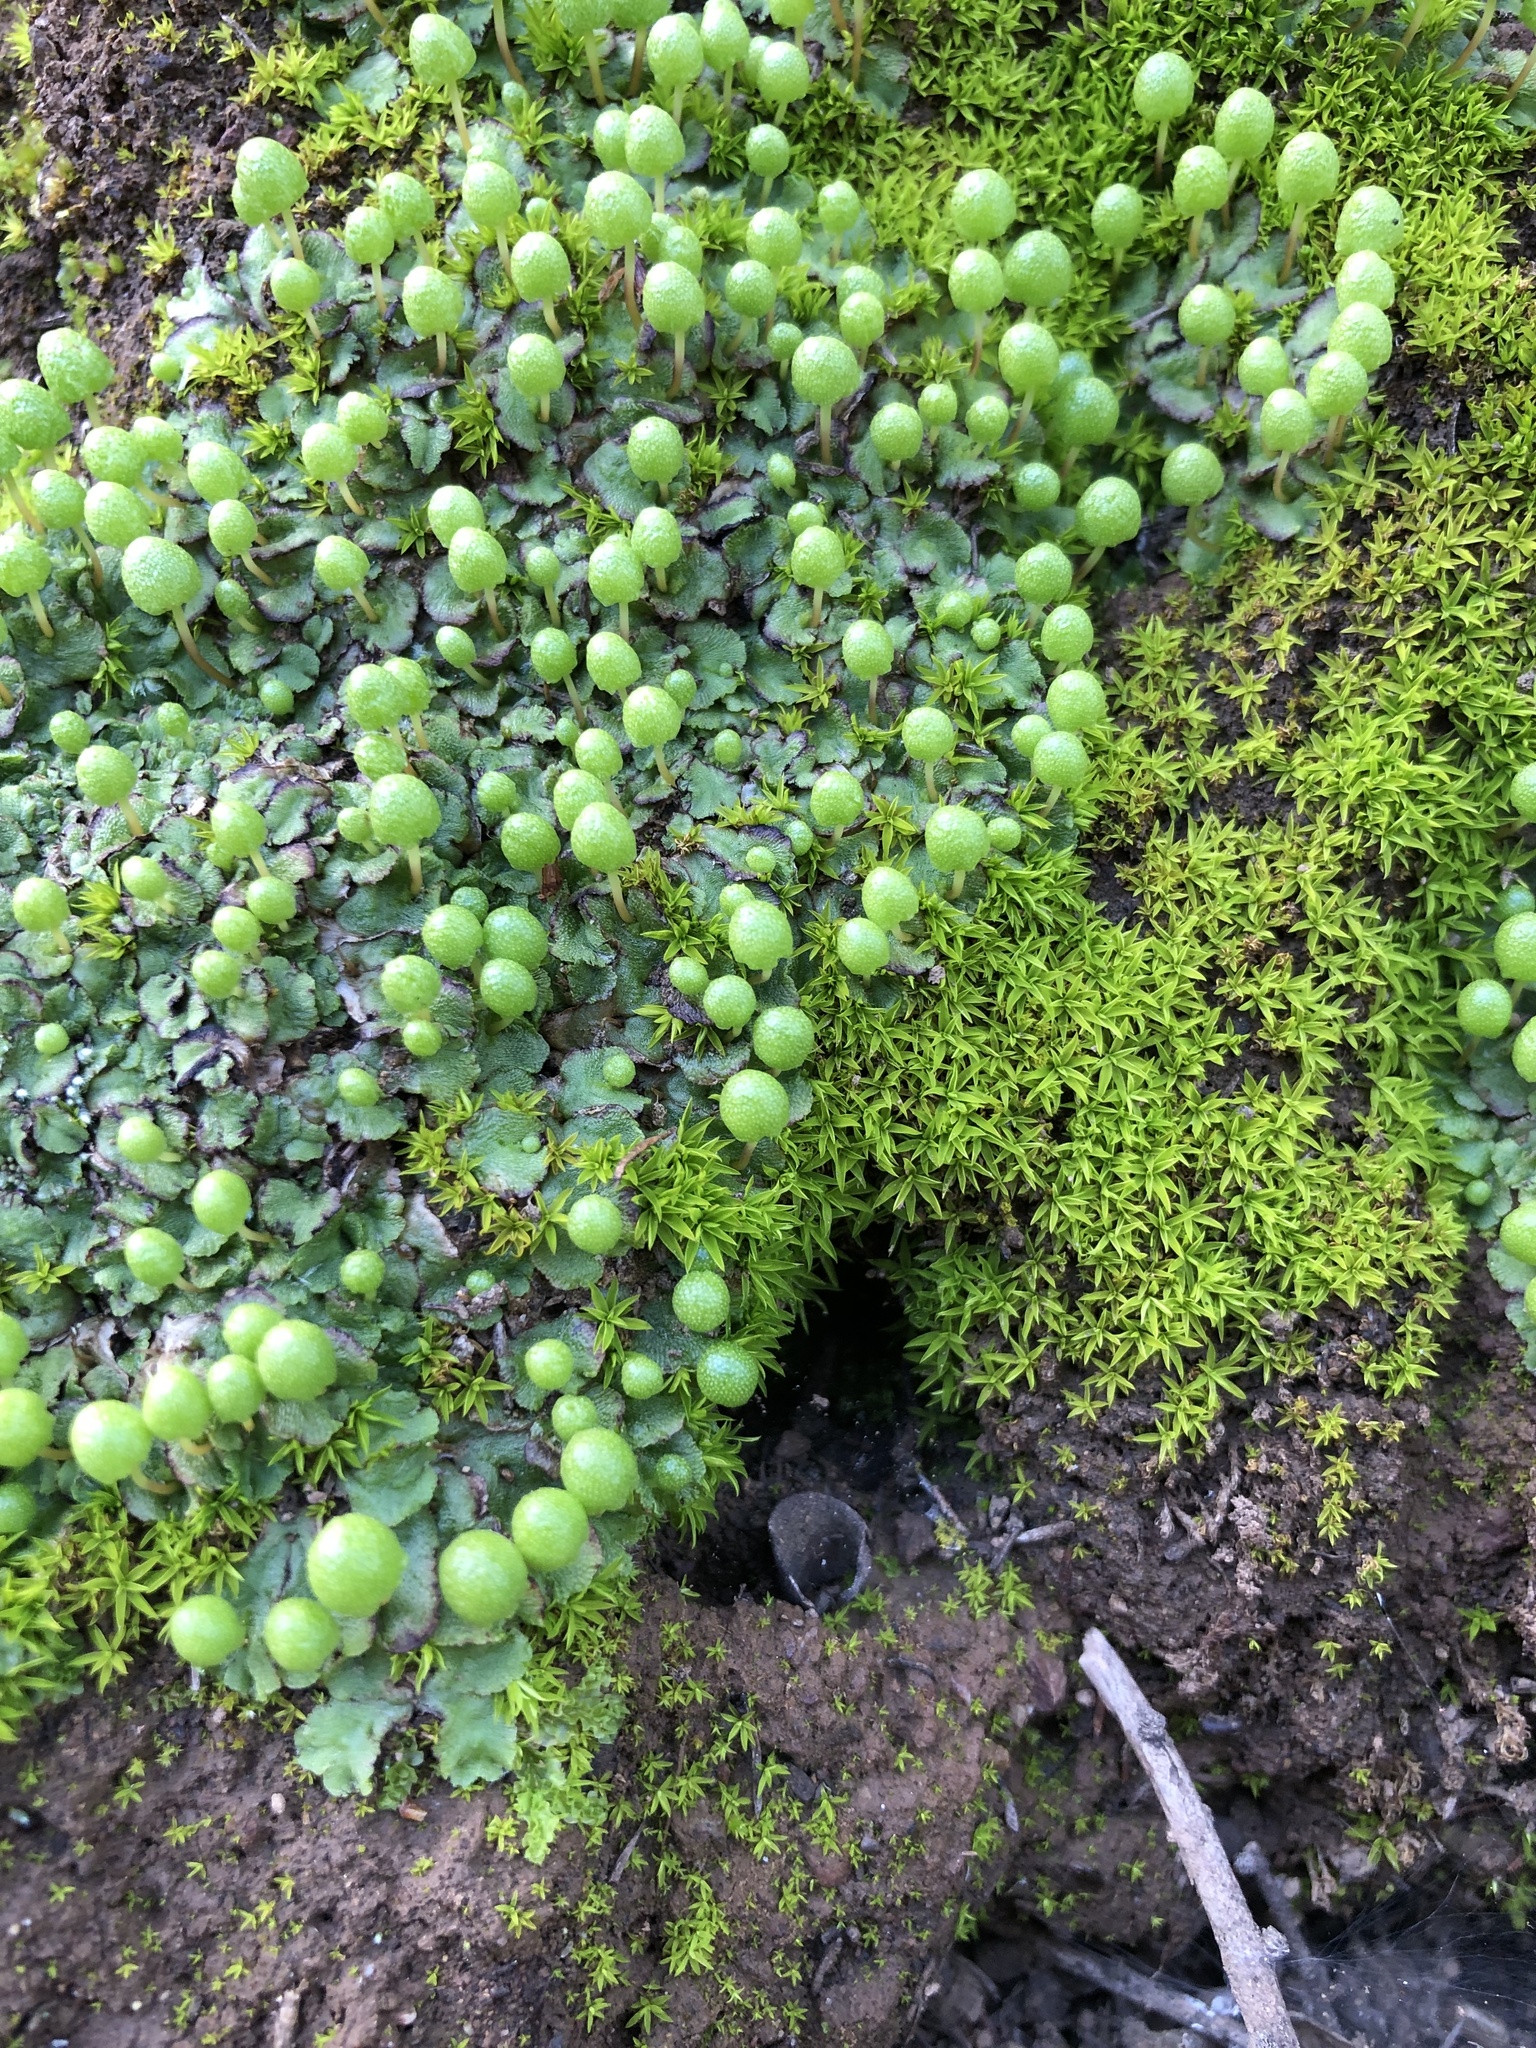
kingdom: Plantae
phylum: Marchantiophyta
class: Marchantiopsida
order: Marchantiales
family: Aytoniaceae
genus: Asterella
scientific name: Asterella palmeri
